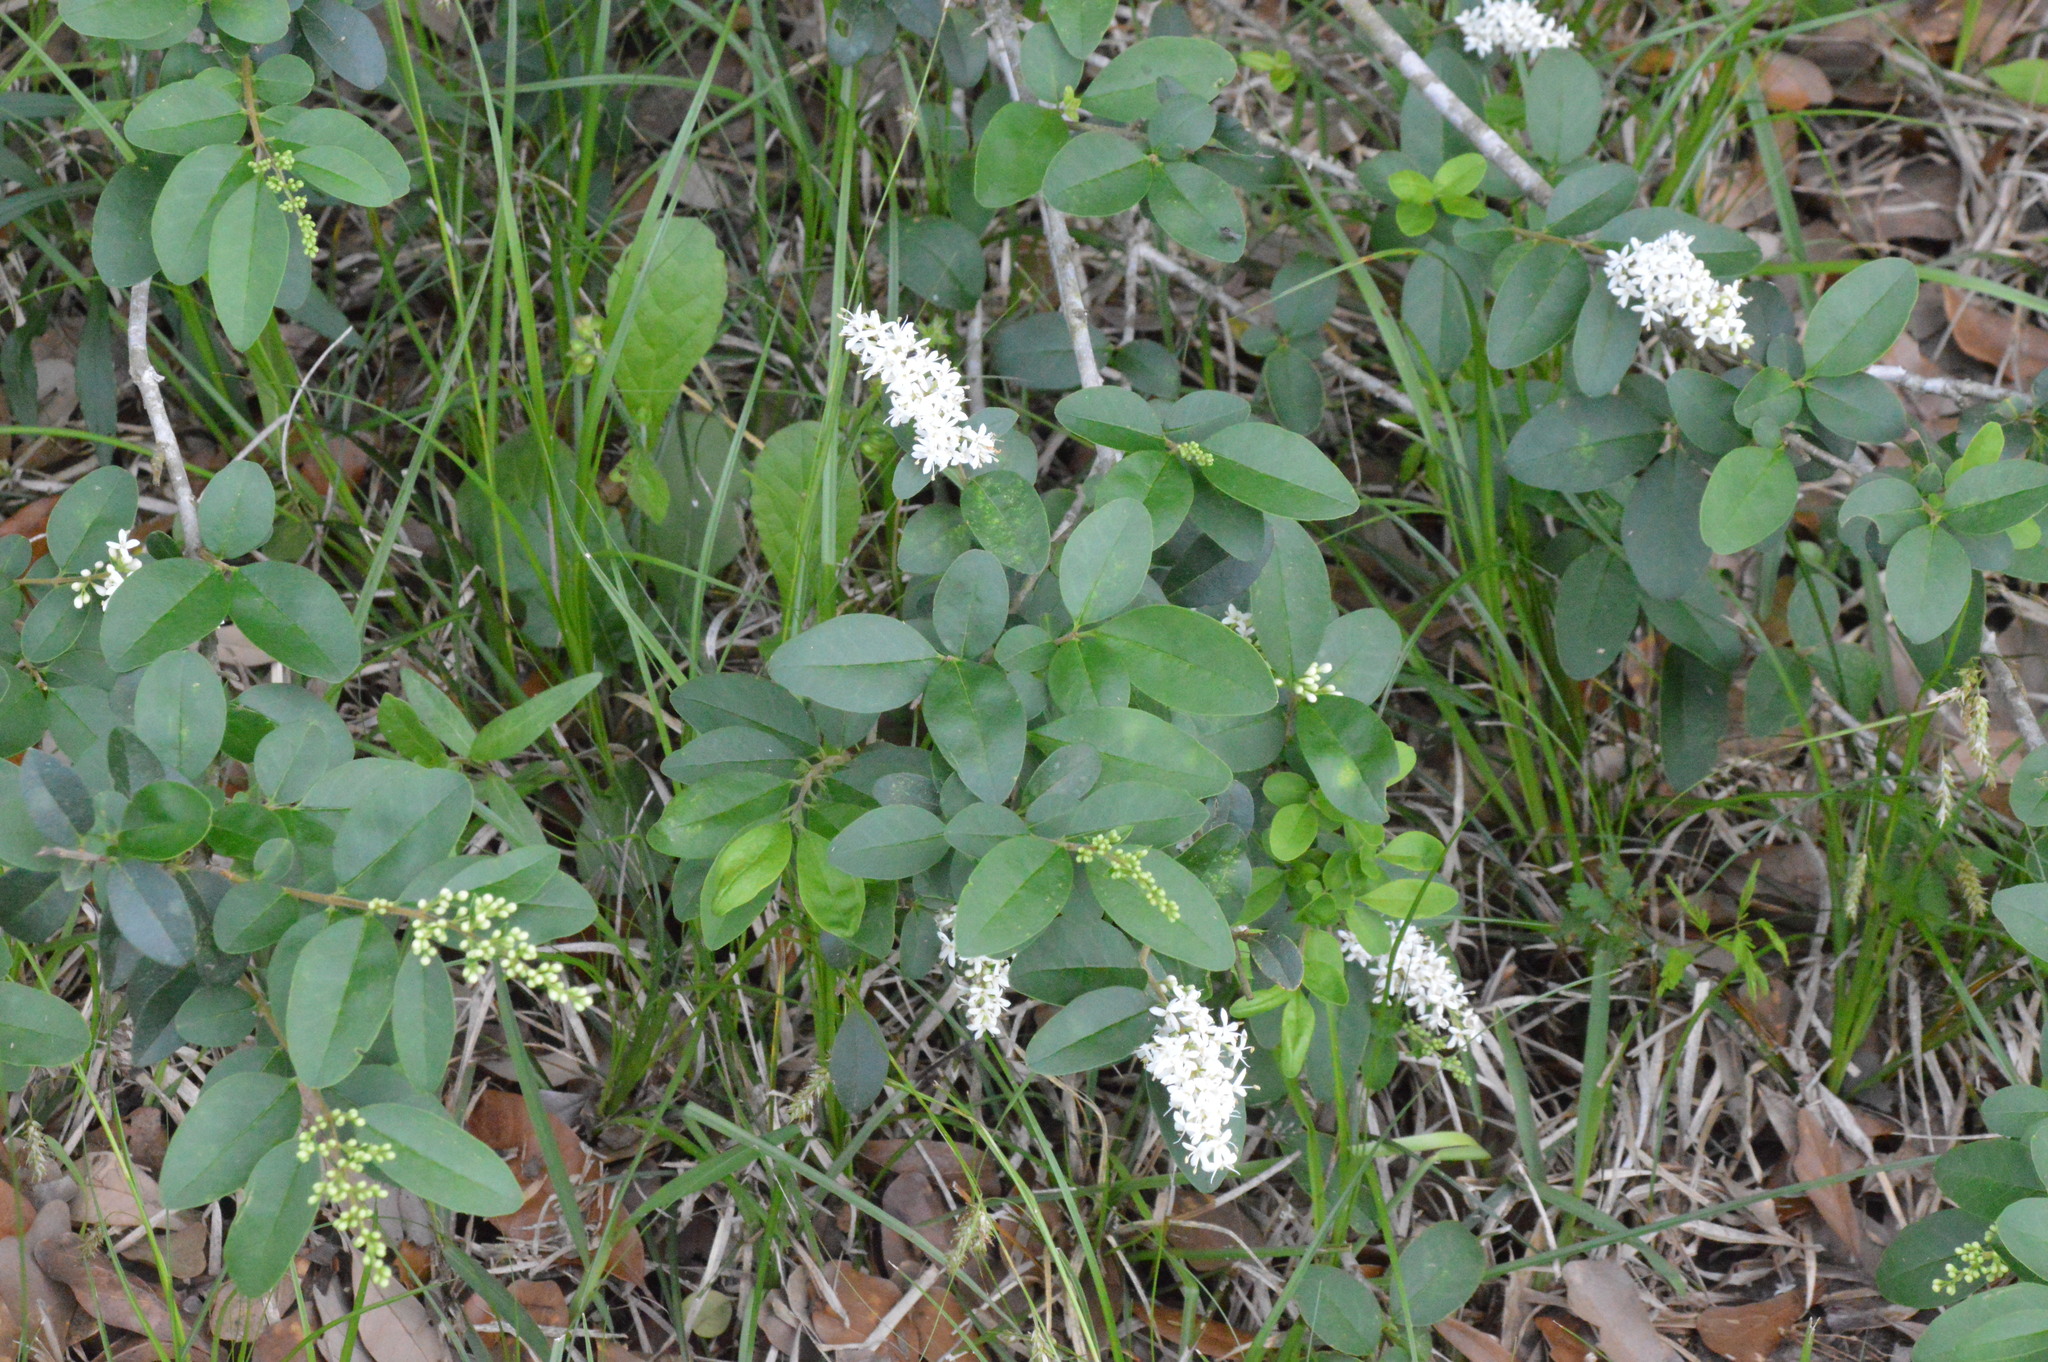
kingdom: Plantae
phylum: Tracheophyta
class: Magnoliopsida
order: Lamiales
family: Oleaceae
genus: Ligustrum
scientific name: Ligustrum sinense
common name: Chinese privet
